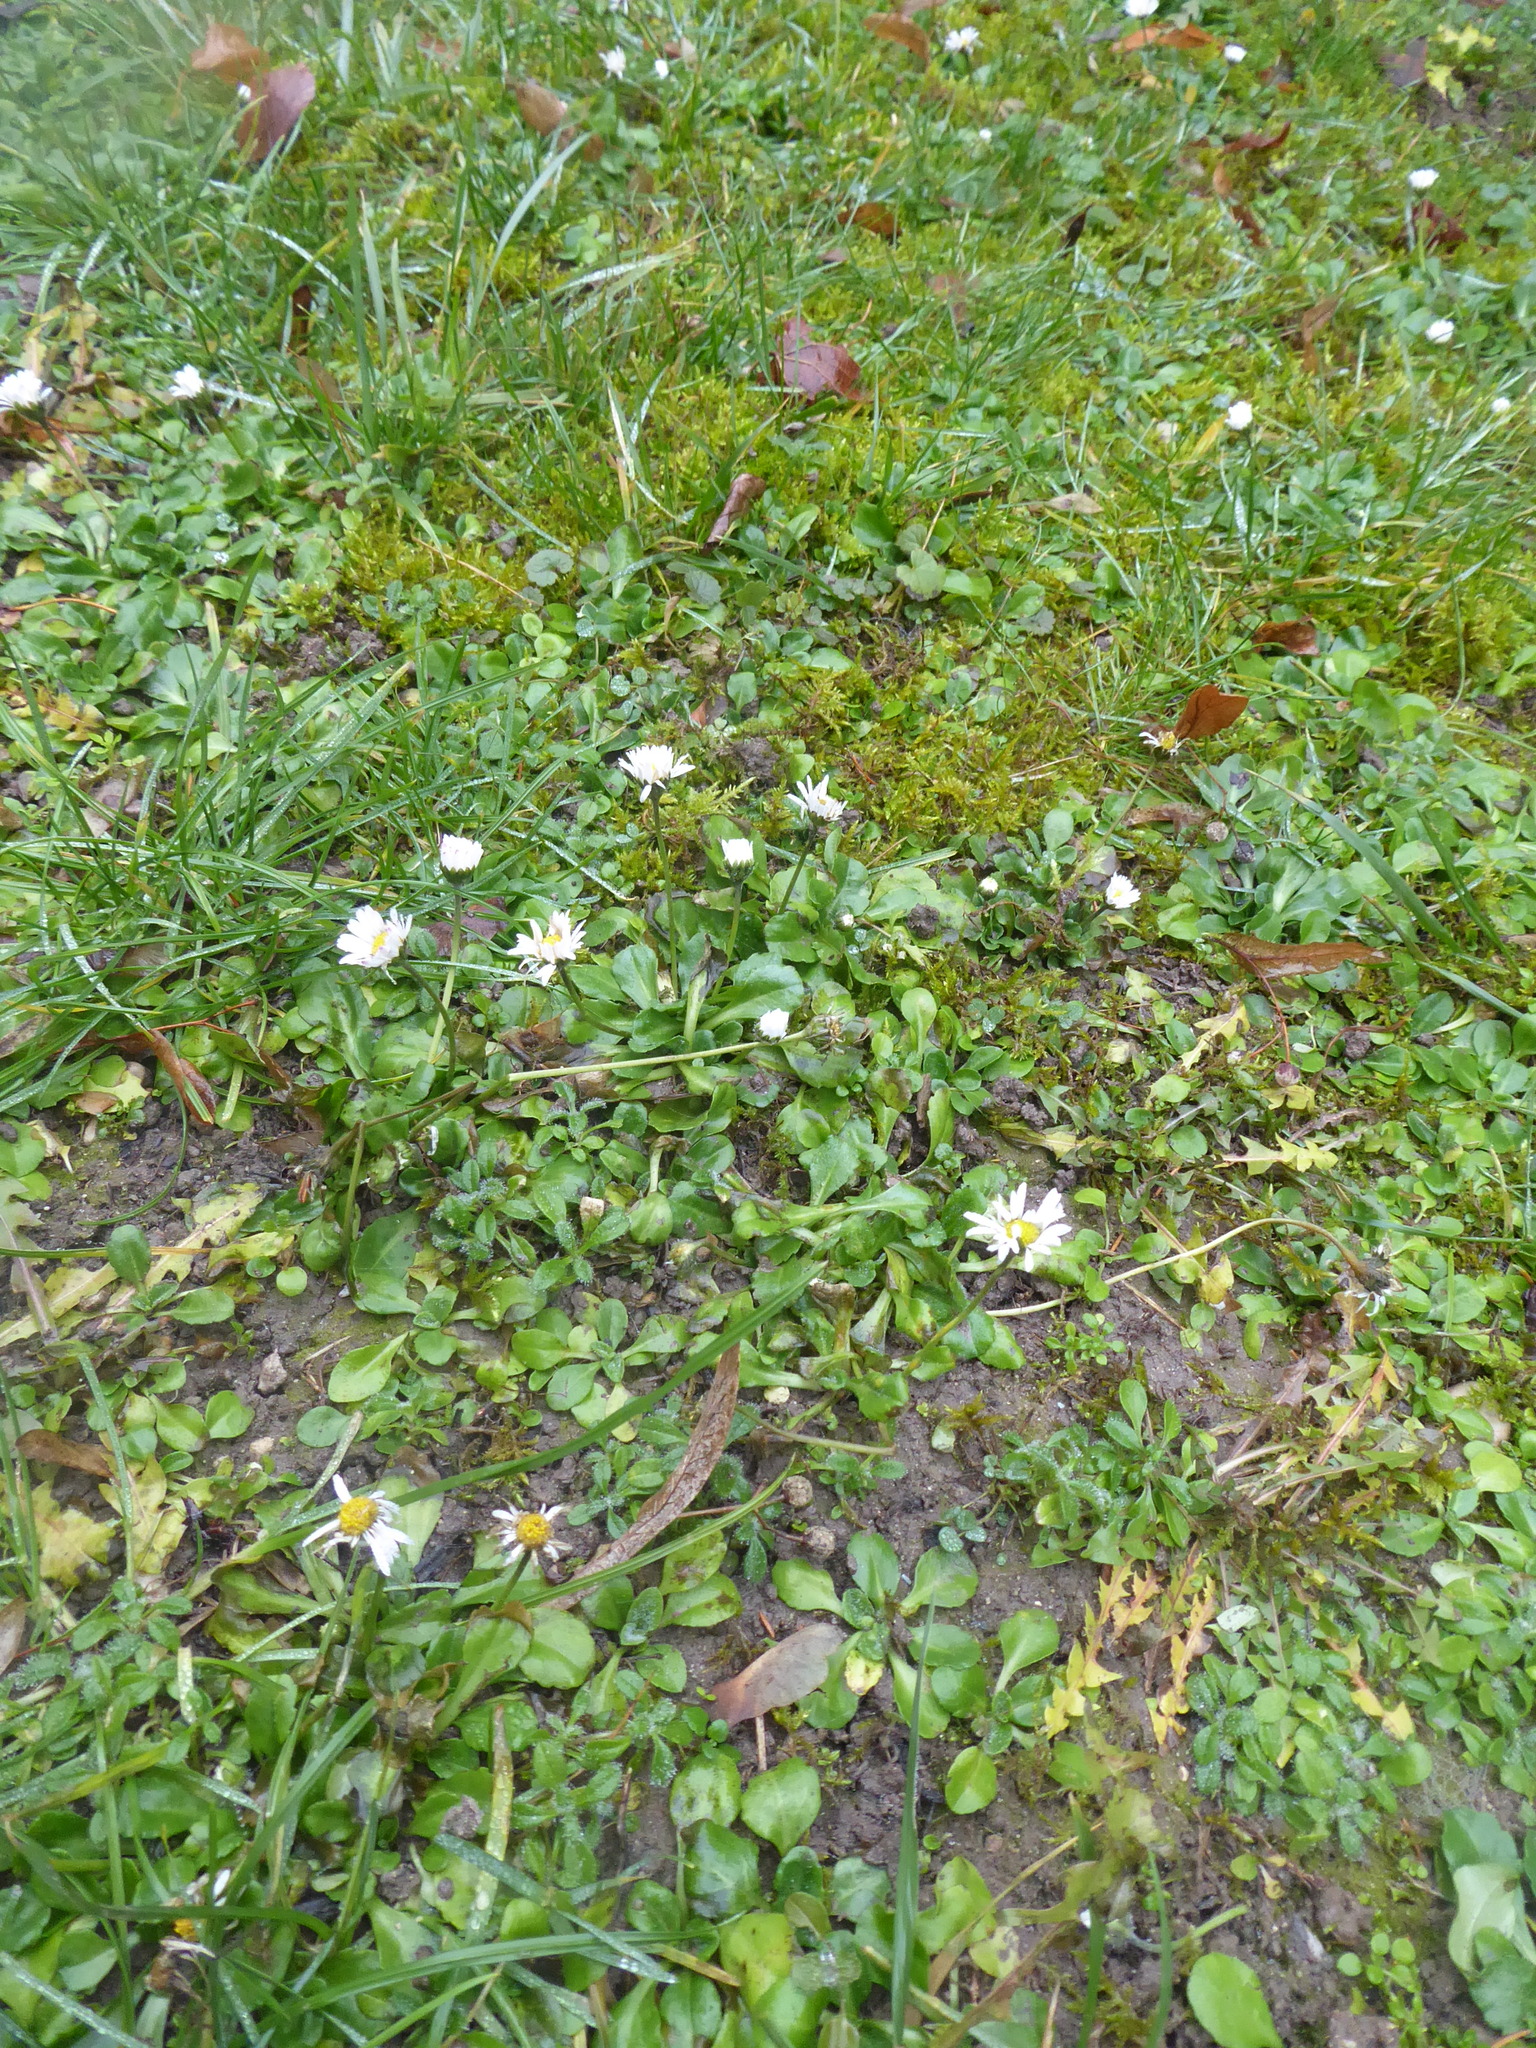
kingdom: Plantae
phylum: Tracheophyta
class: Magnoliopsida
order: Asterales
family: Asteraceae
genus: Bellis
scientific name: Bellis perennis
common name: Lawndaisy
